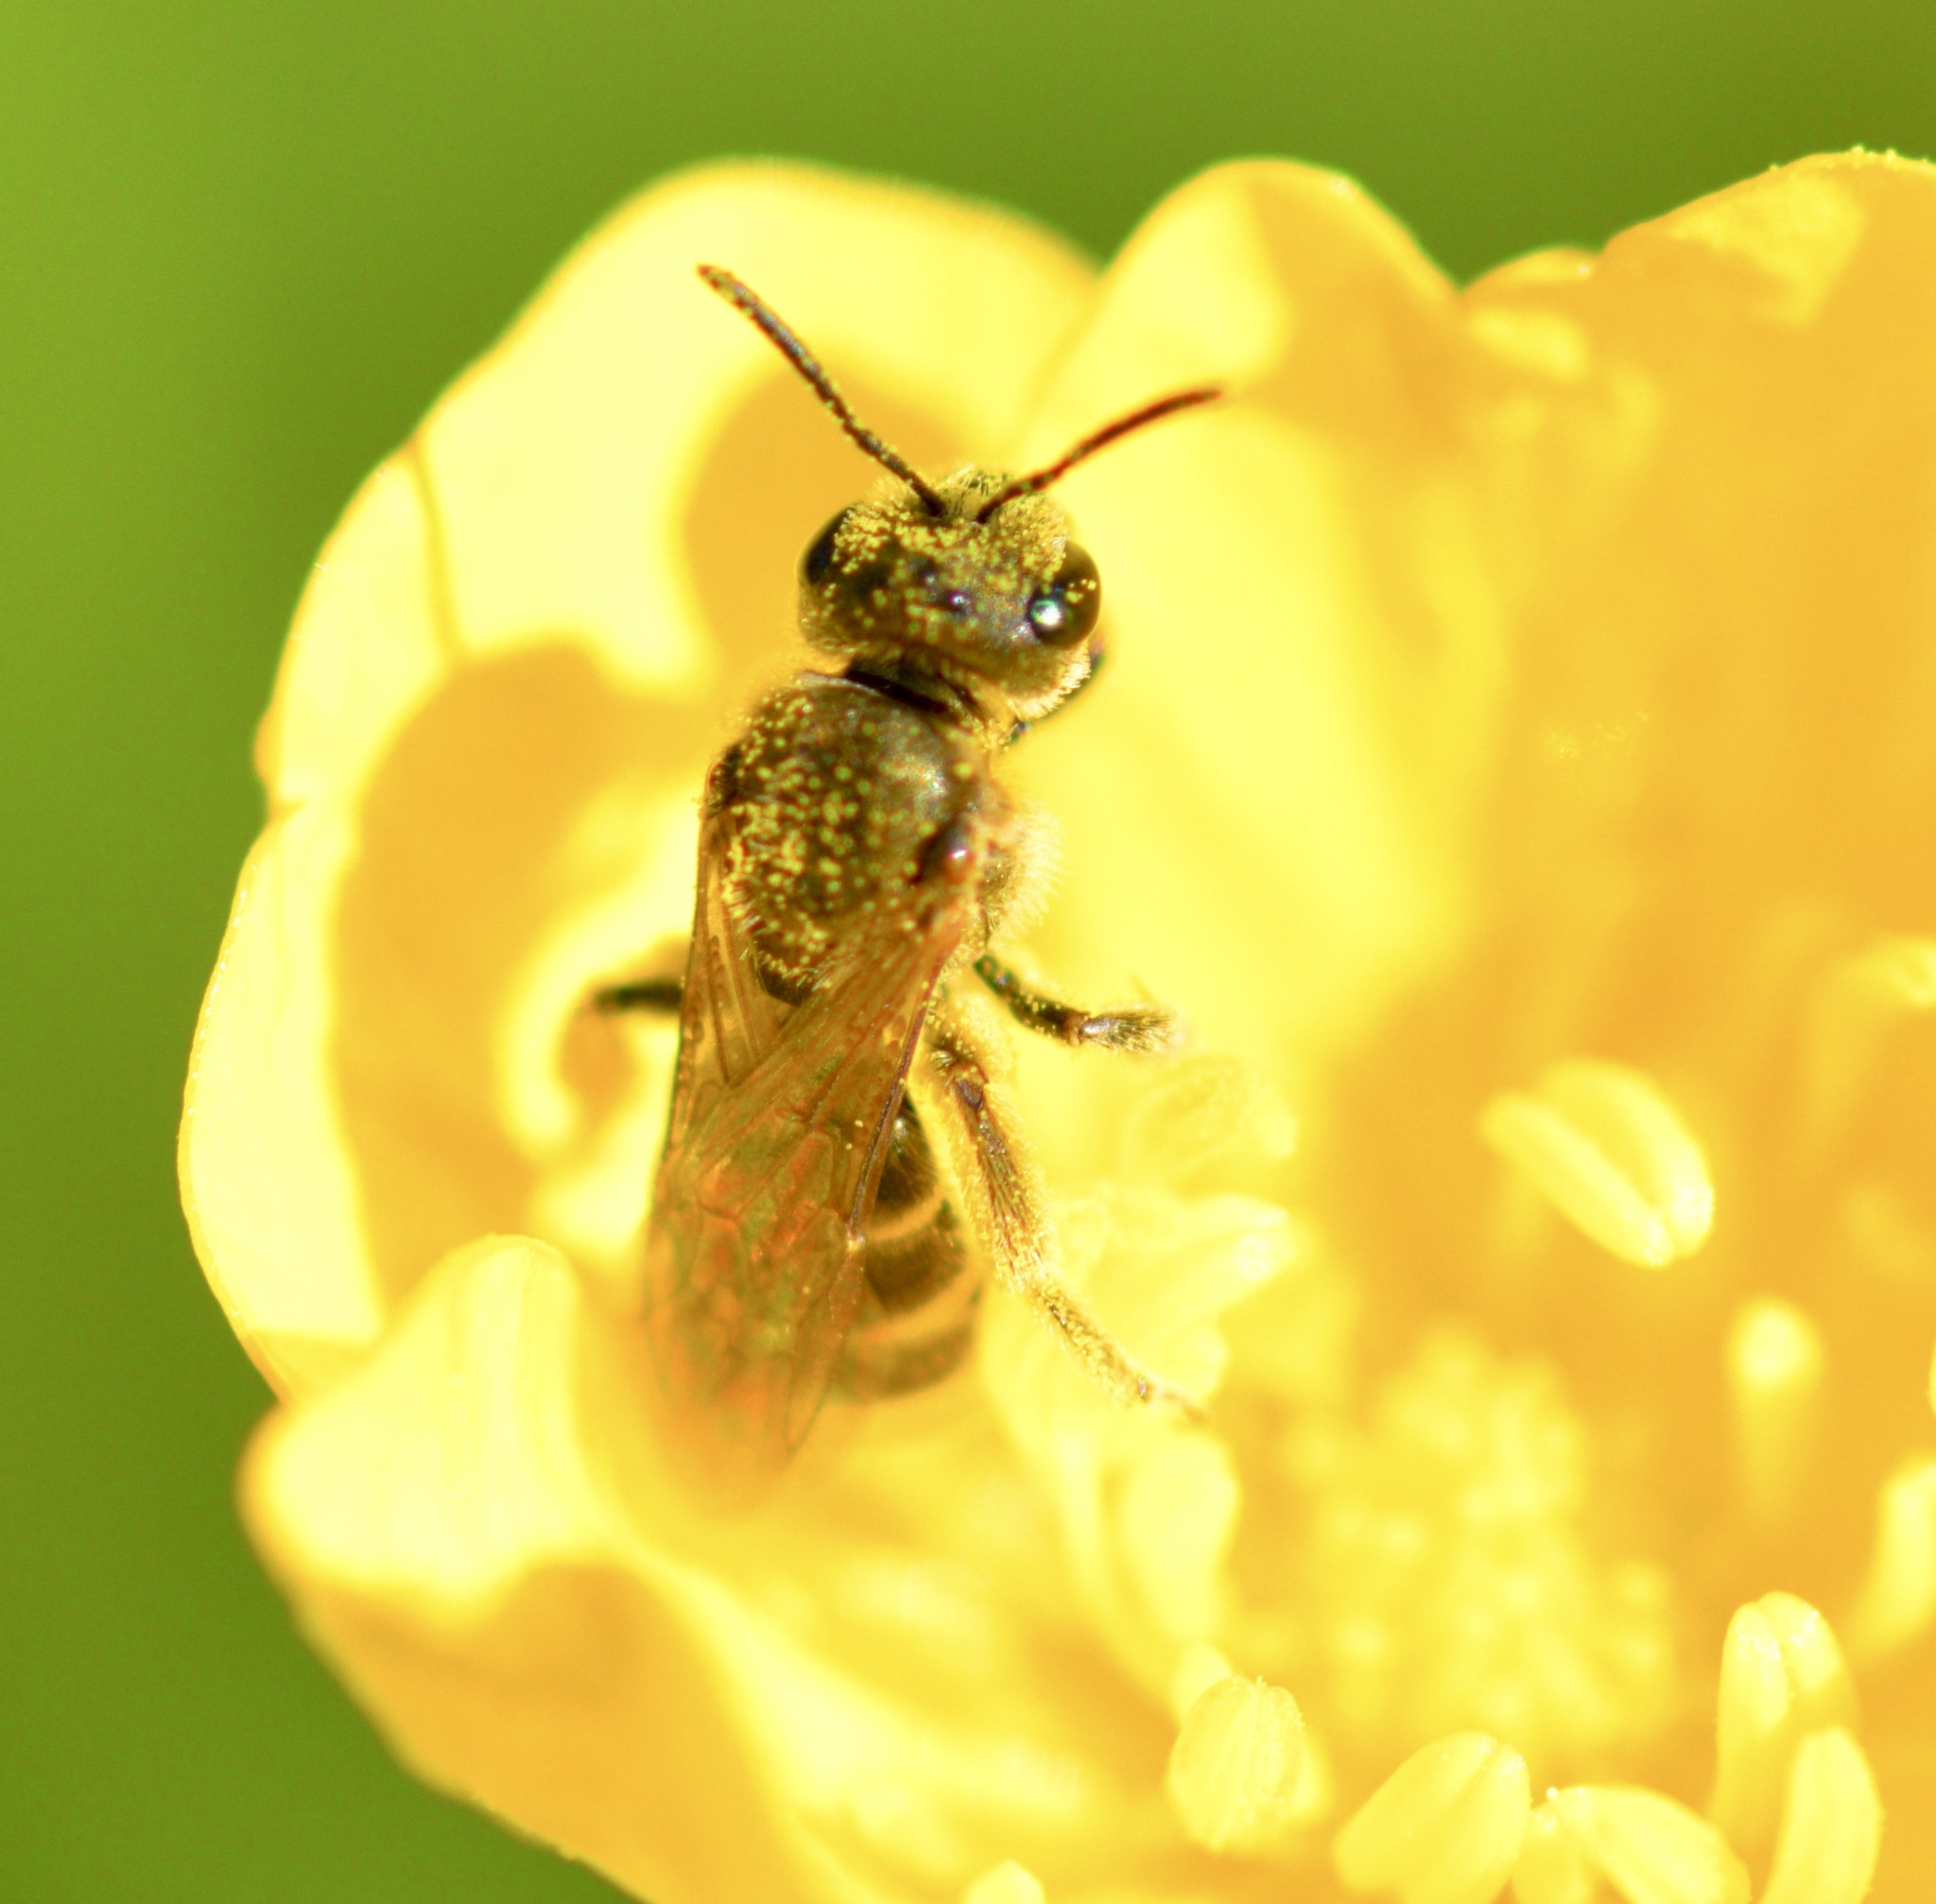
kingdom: Animalia
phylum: Arthropoda
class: Insecta
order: Hymenoptera
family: Halictidae
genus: Halictus
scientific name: Halictus confusus
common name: Southern bronze furrow bee
